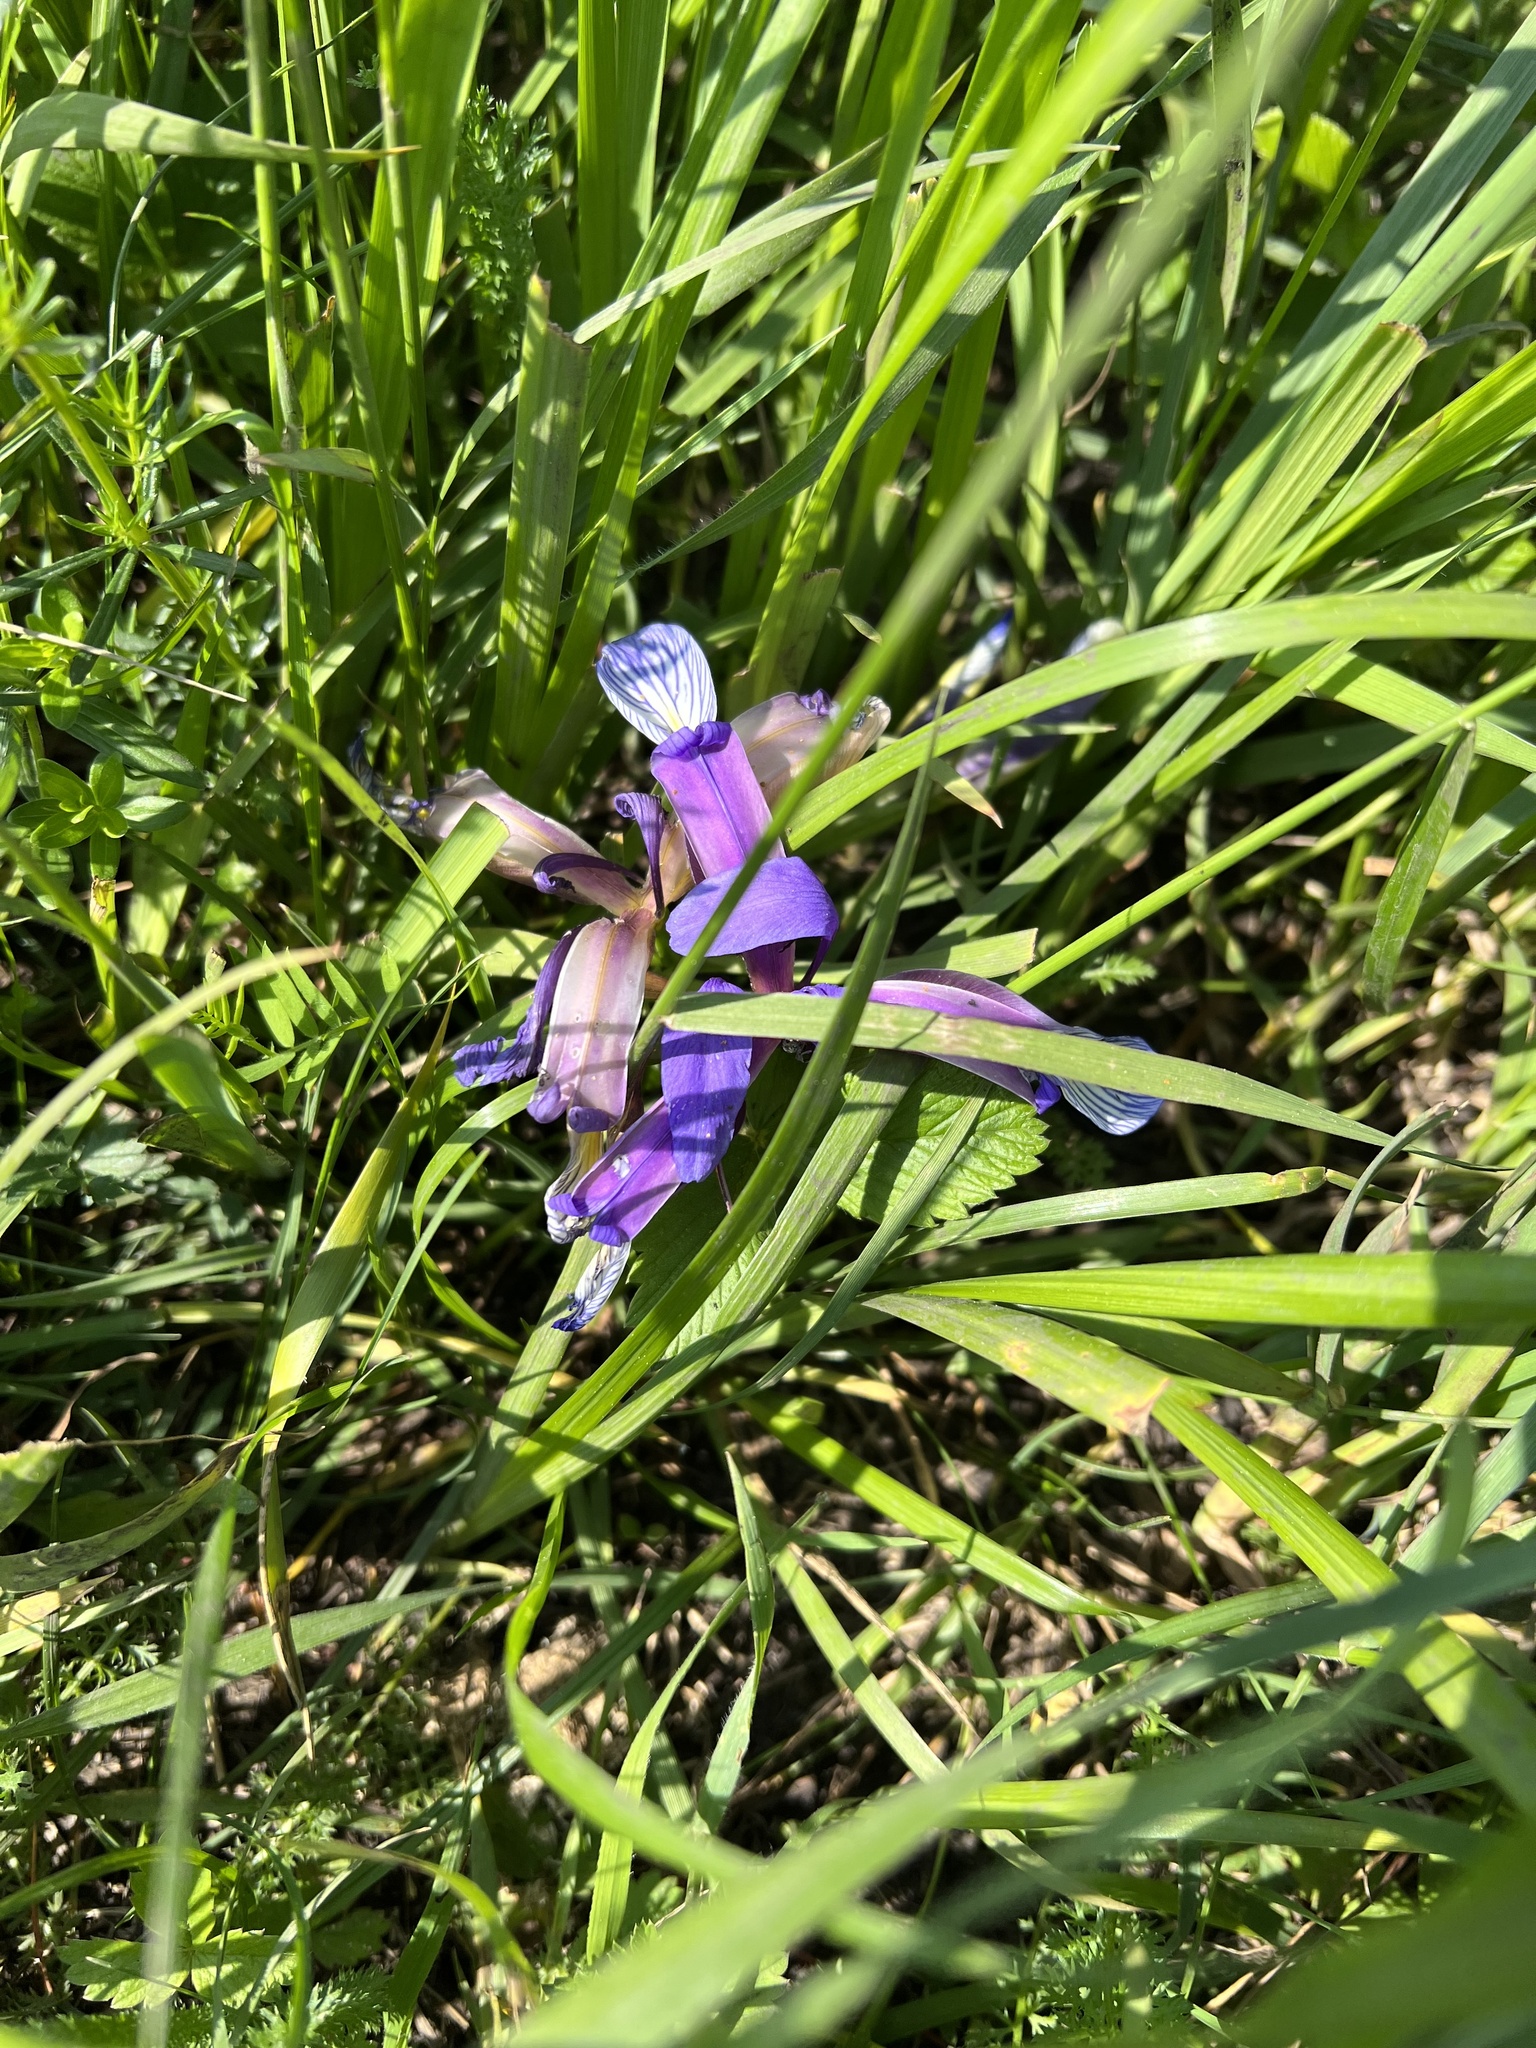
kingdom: Plantae
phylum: Tracheophyta
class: Liliopsida
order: Asparagales
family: Iridaceae
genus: Iris
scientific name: Iris graminea
